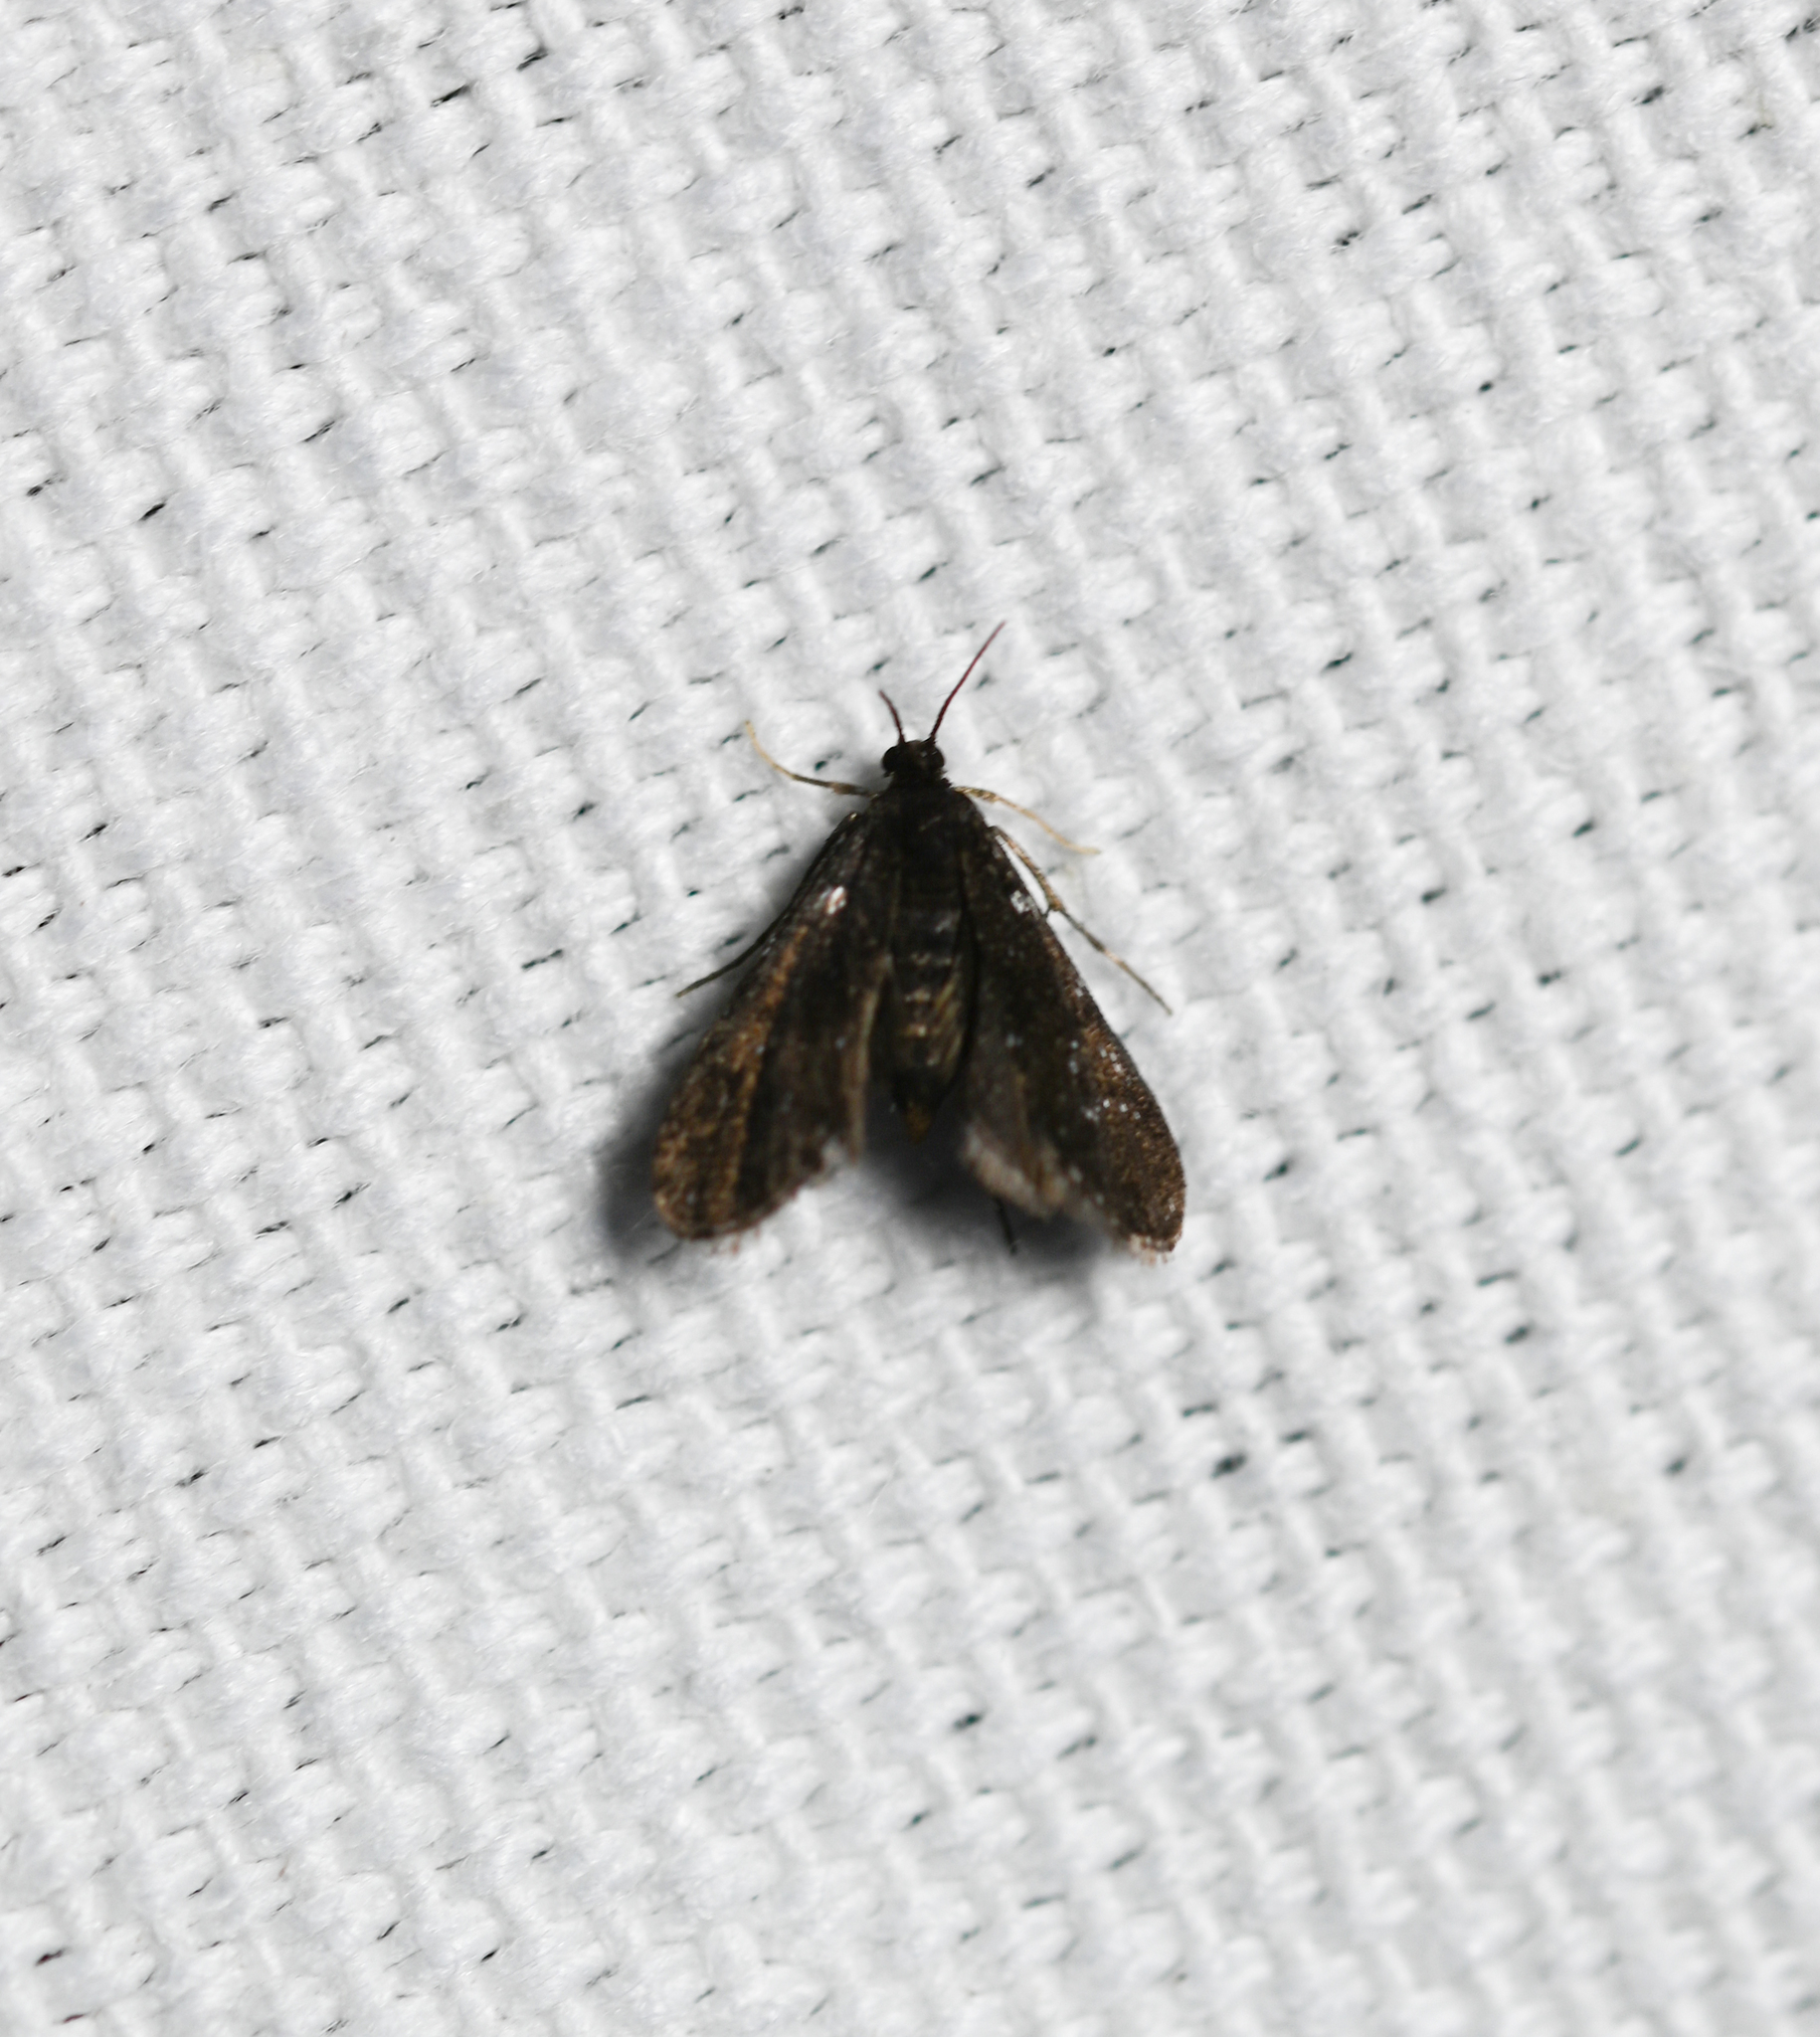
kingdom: Animalia
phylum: Arthropoda
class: Insecta
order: Lepidoptera
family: Crambidae
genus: Elophila
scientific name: Elophila tinealis
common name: Black duckweed moth
